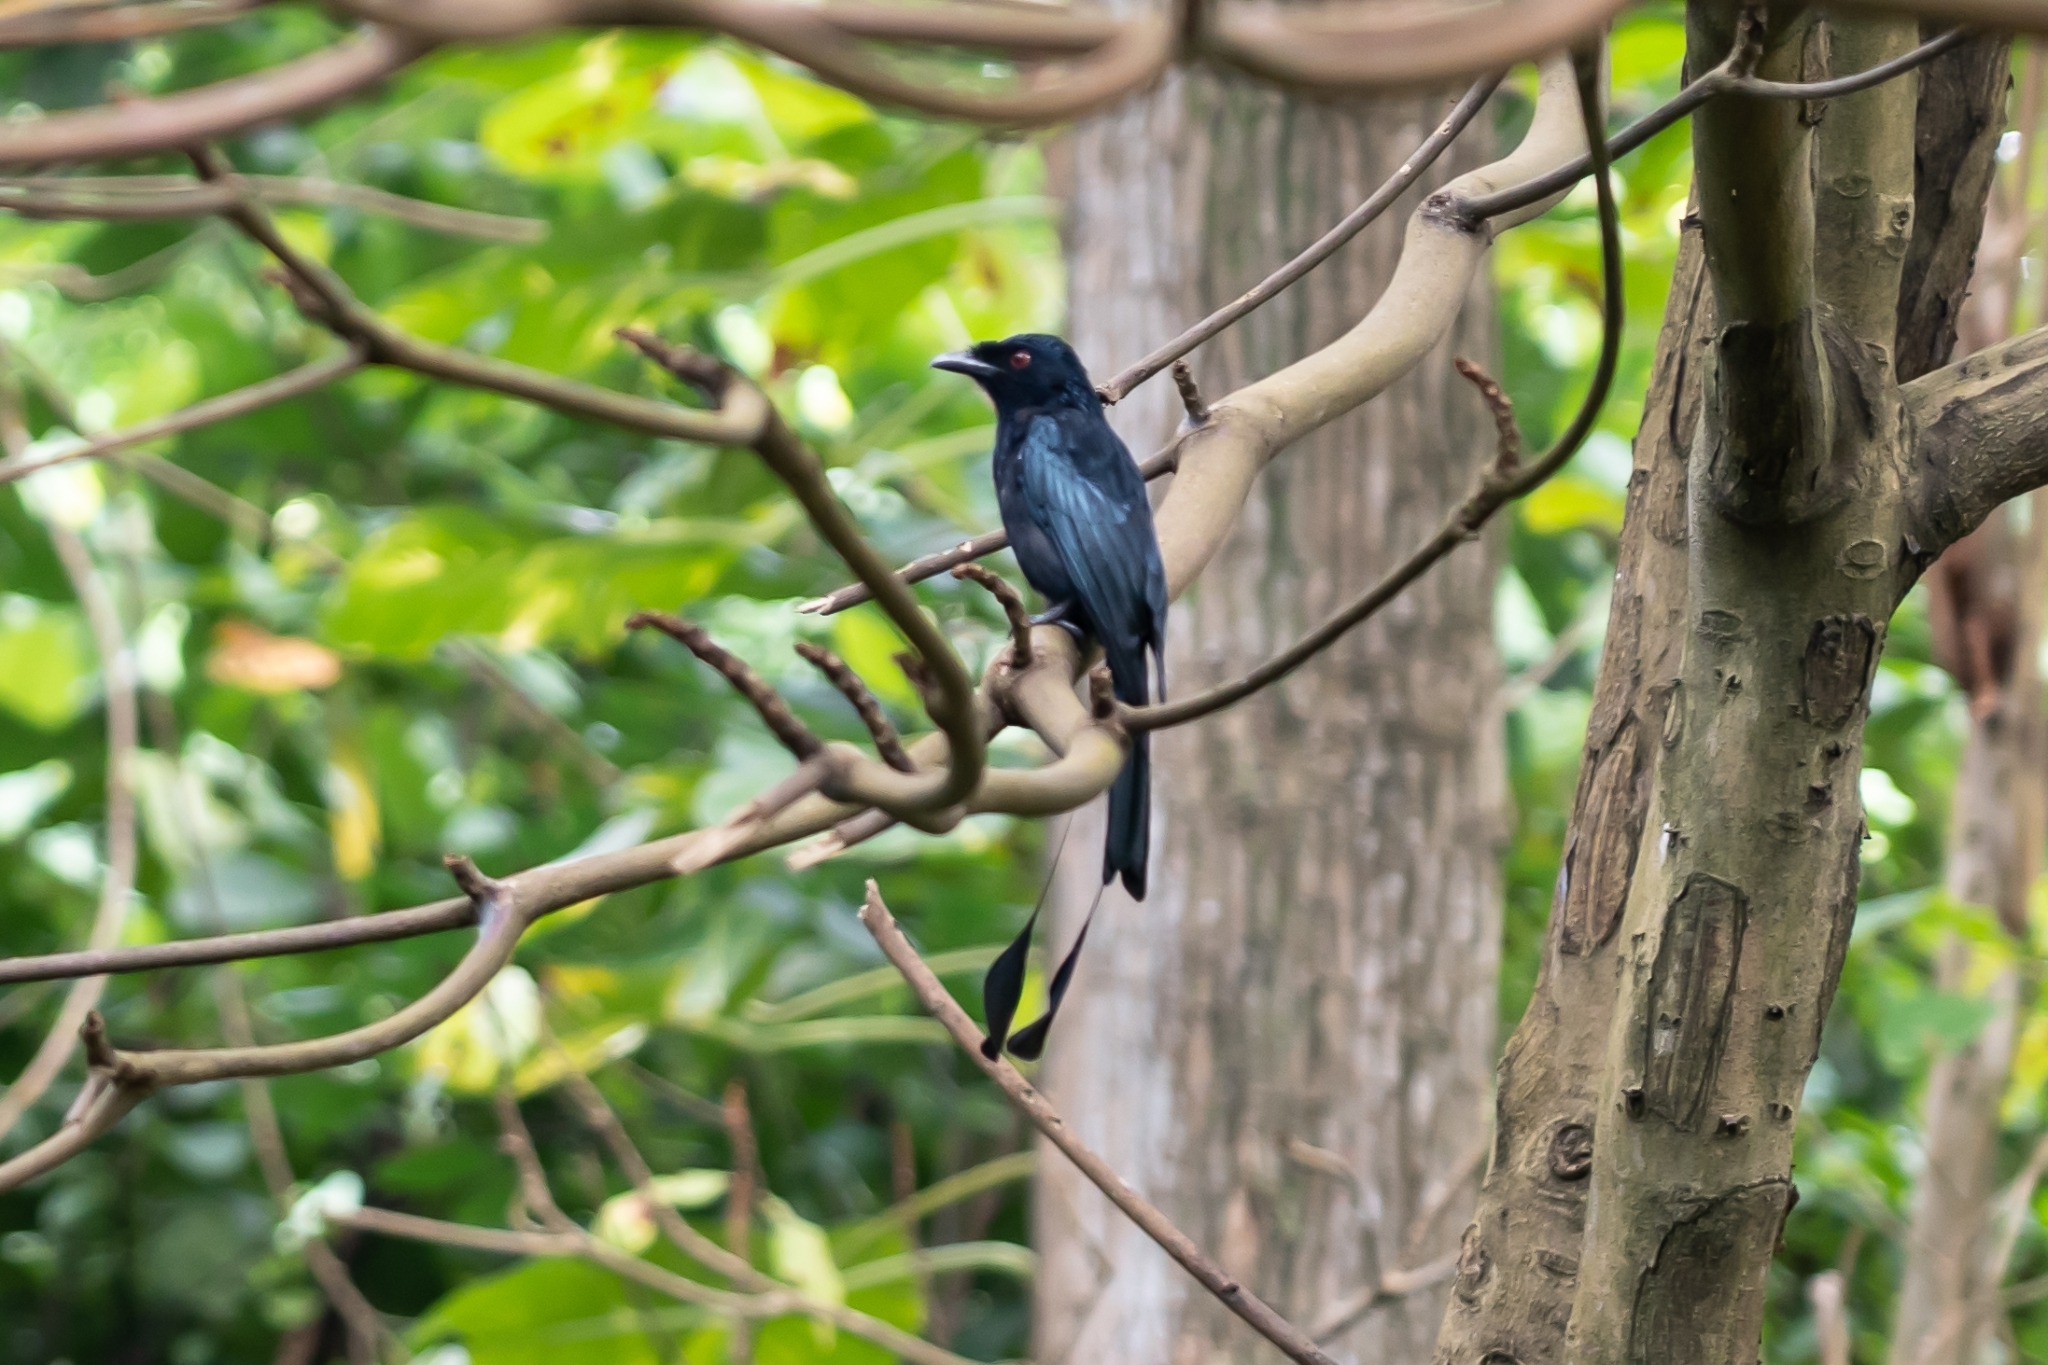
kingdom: Animalia
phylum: Chordata
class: Aves
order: Passeriformes
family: Dicruridae
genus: Dicrurus
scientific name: Dicrurus paradiseus
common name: Greater racket-tailed drongo
